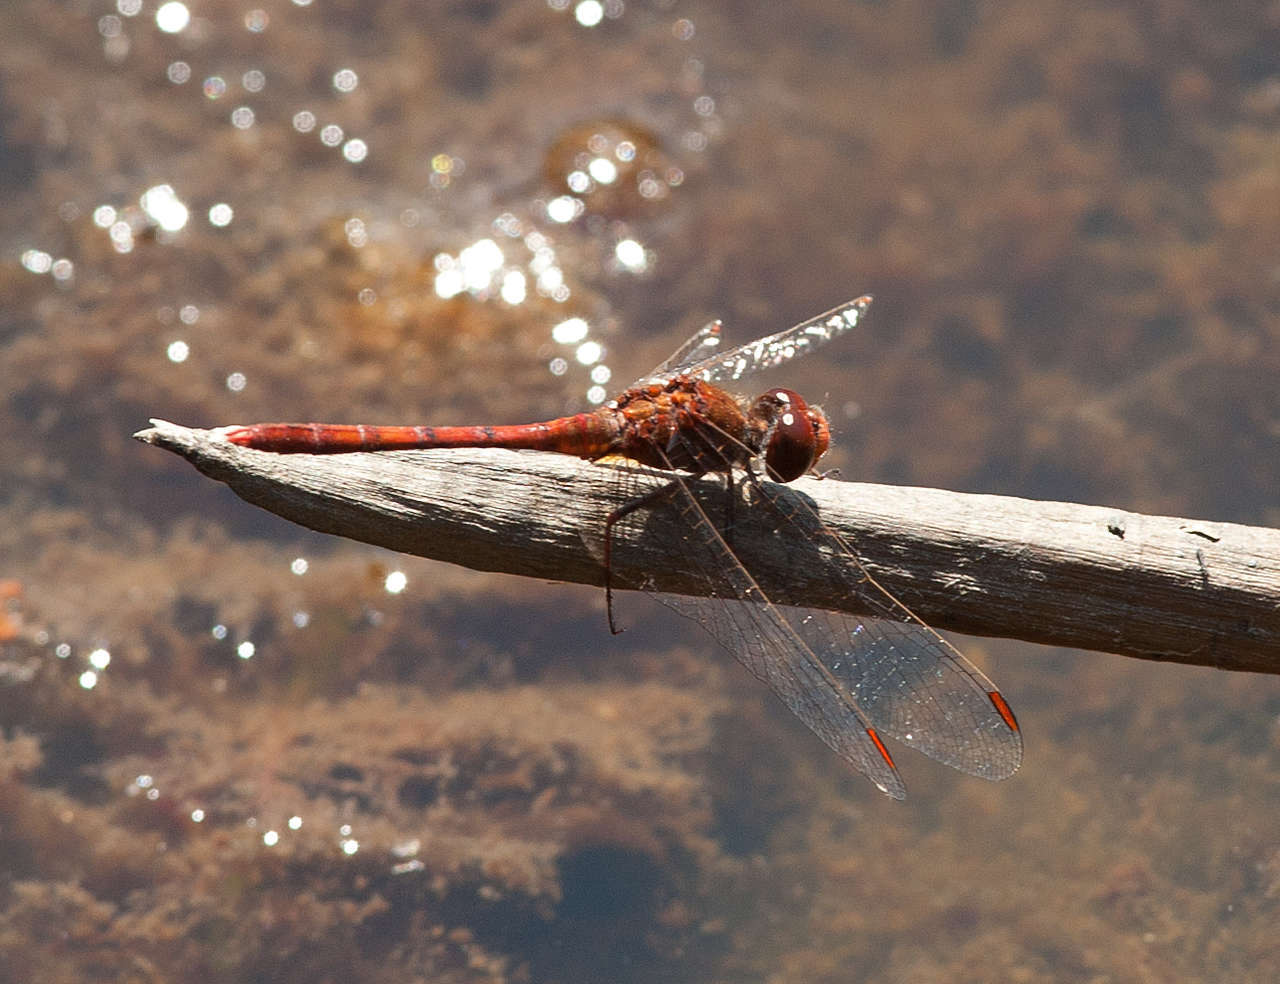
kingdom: Animalia
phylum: Arthropoda
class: Insecta
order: Odonata
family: Libellulidae
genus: Diplacodes
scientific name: Diplacodes bipunctata
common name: Red percher dragonfly
